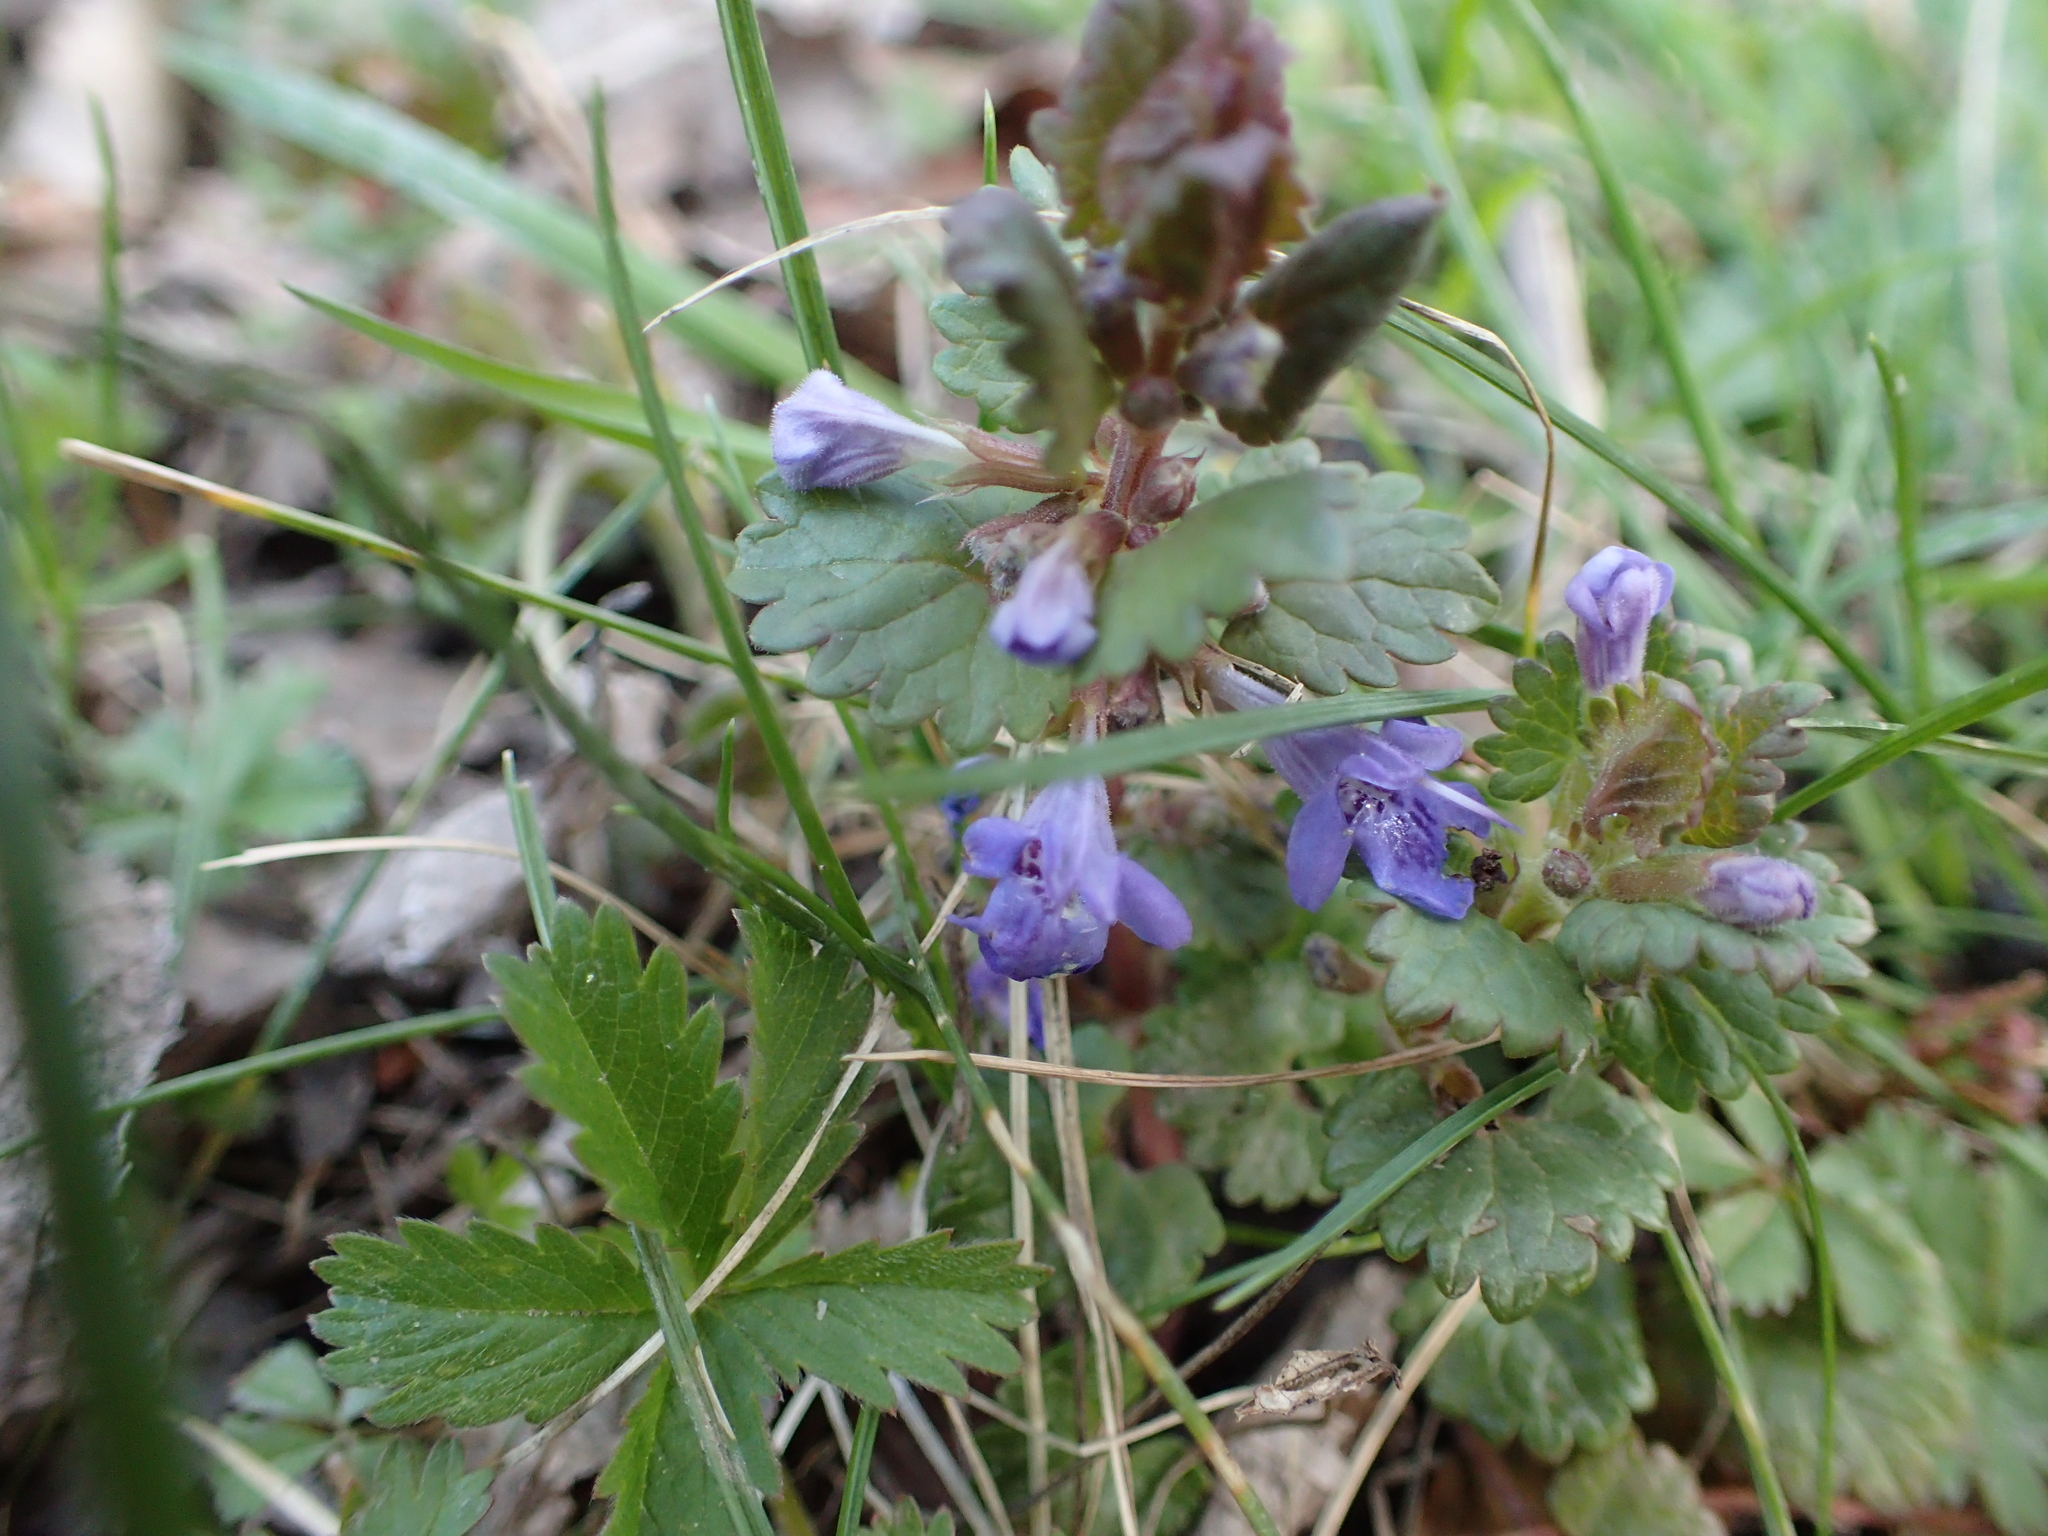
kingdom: Plantae
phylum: Tracheophyta
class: Magnoliopsida
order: Lamiales
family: Lamiaceae
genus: Glechoma
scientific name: Glechoma hederacea
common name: Ground ivy
